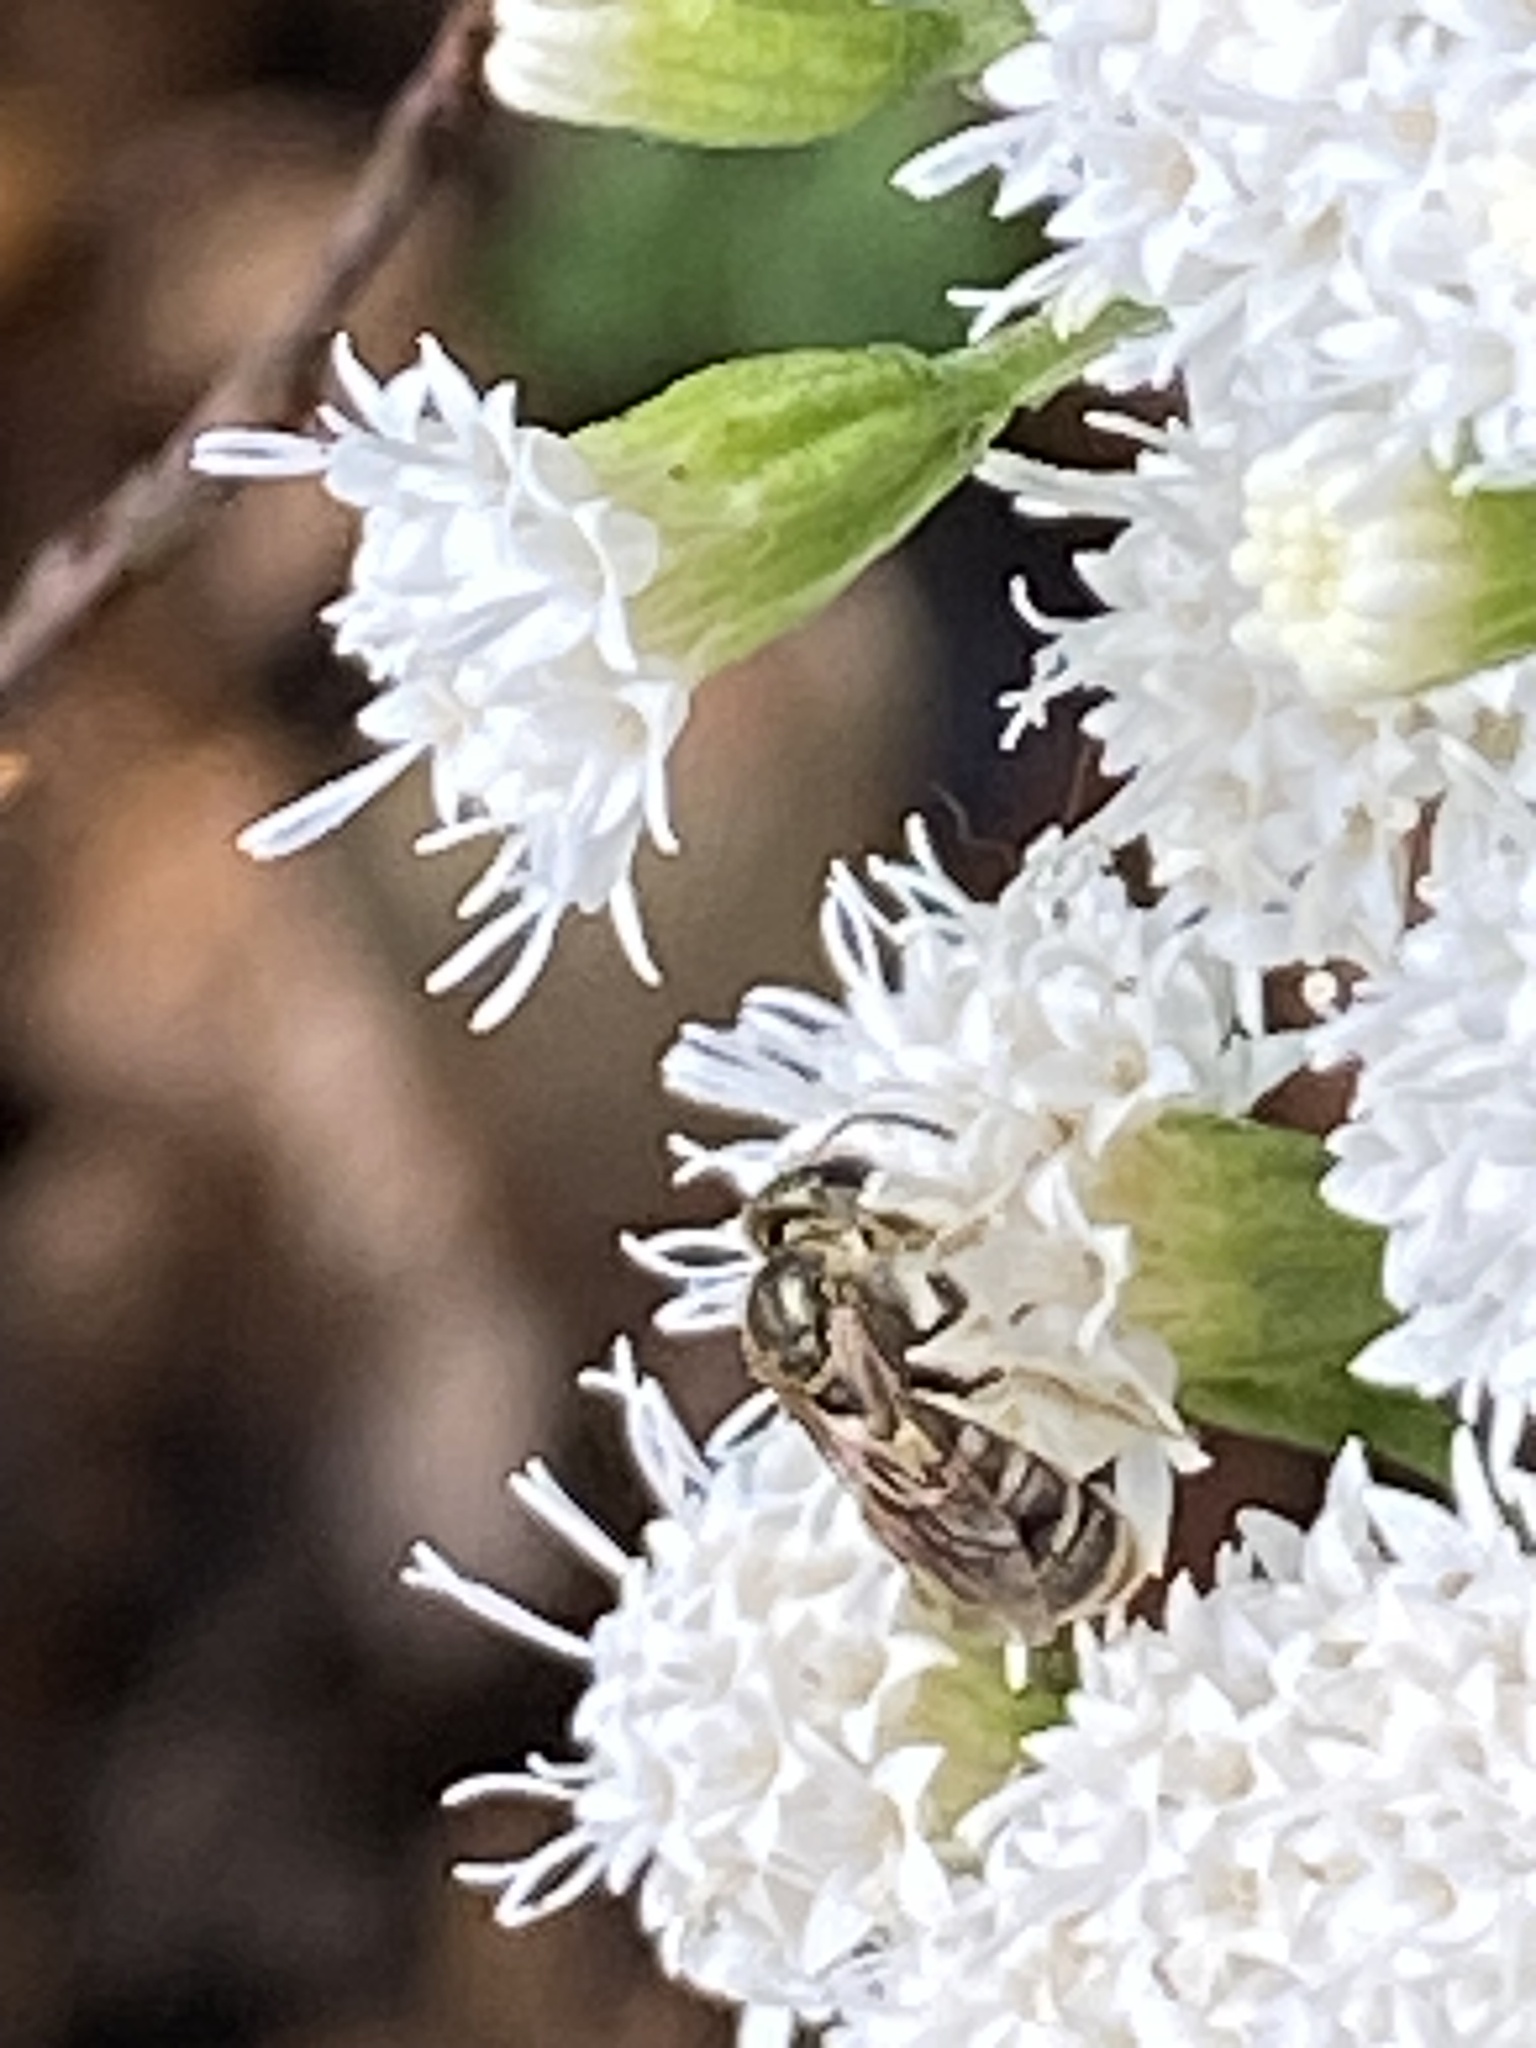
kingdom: Animalia
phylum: Arthropoda
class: Insecta
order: Hymenoptera
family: Halictidae
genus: Halictus
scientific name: Halictus confusus
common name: Southern bronze furrow bee
